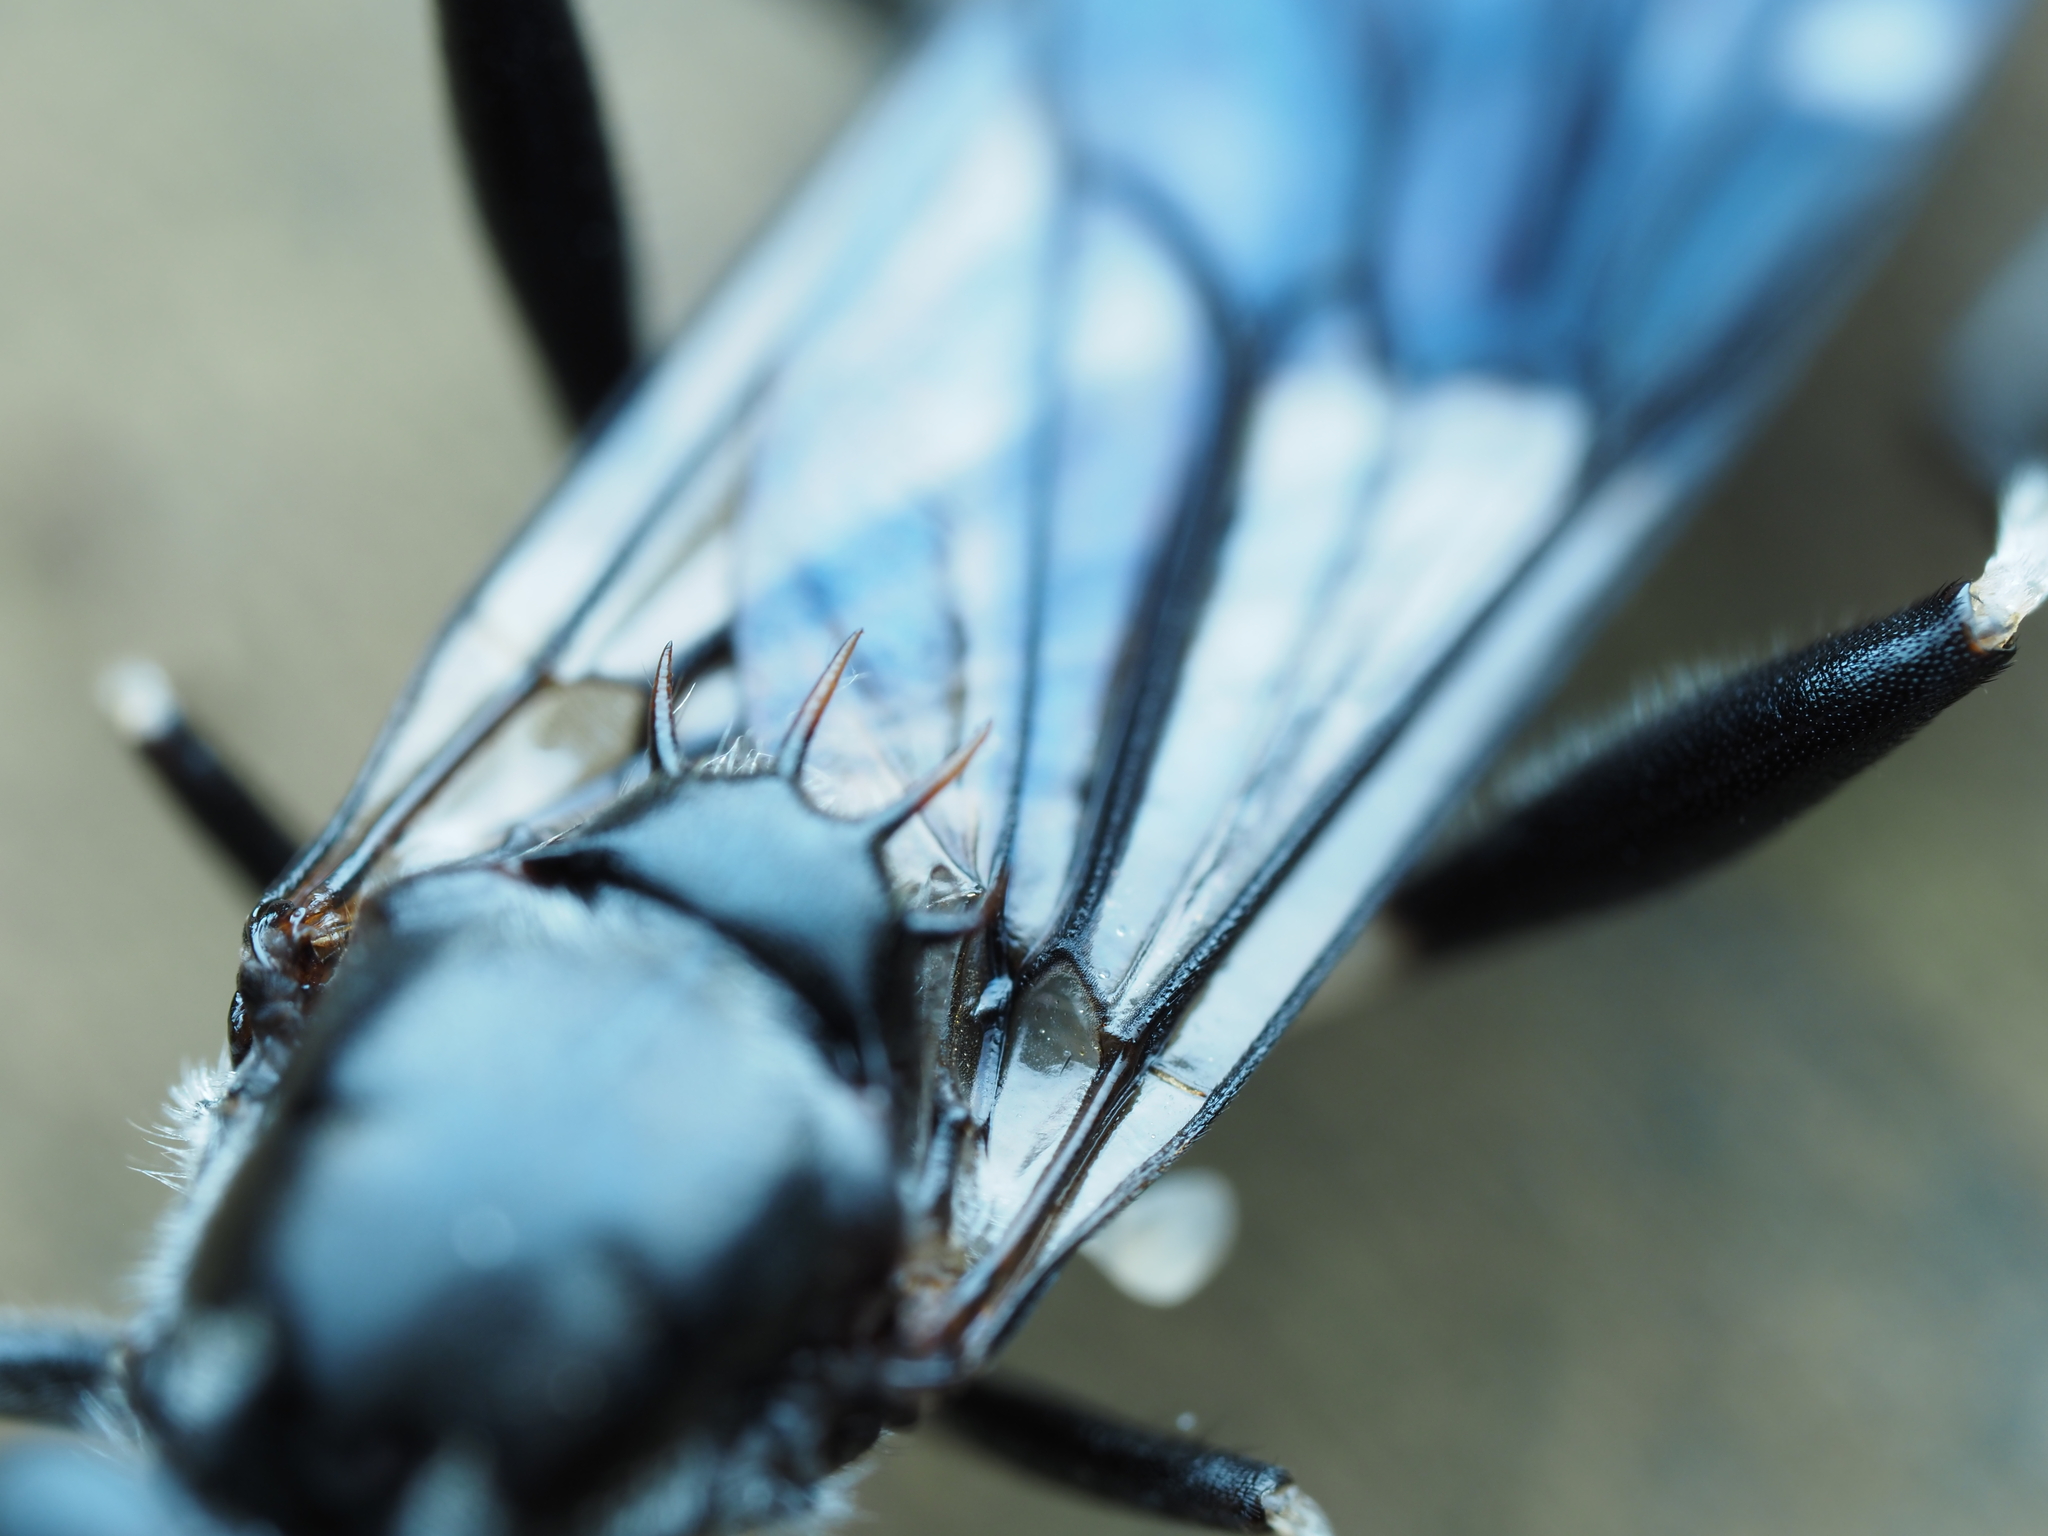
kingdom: Animalia
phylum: Arthropoda
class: Insecta
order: Diptera
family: Stratiomyidae
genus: Exaireta
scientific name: Exaireta spinigera
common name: Blue soldier fly
